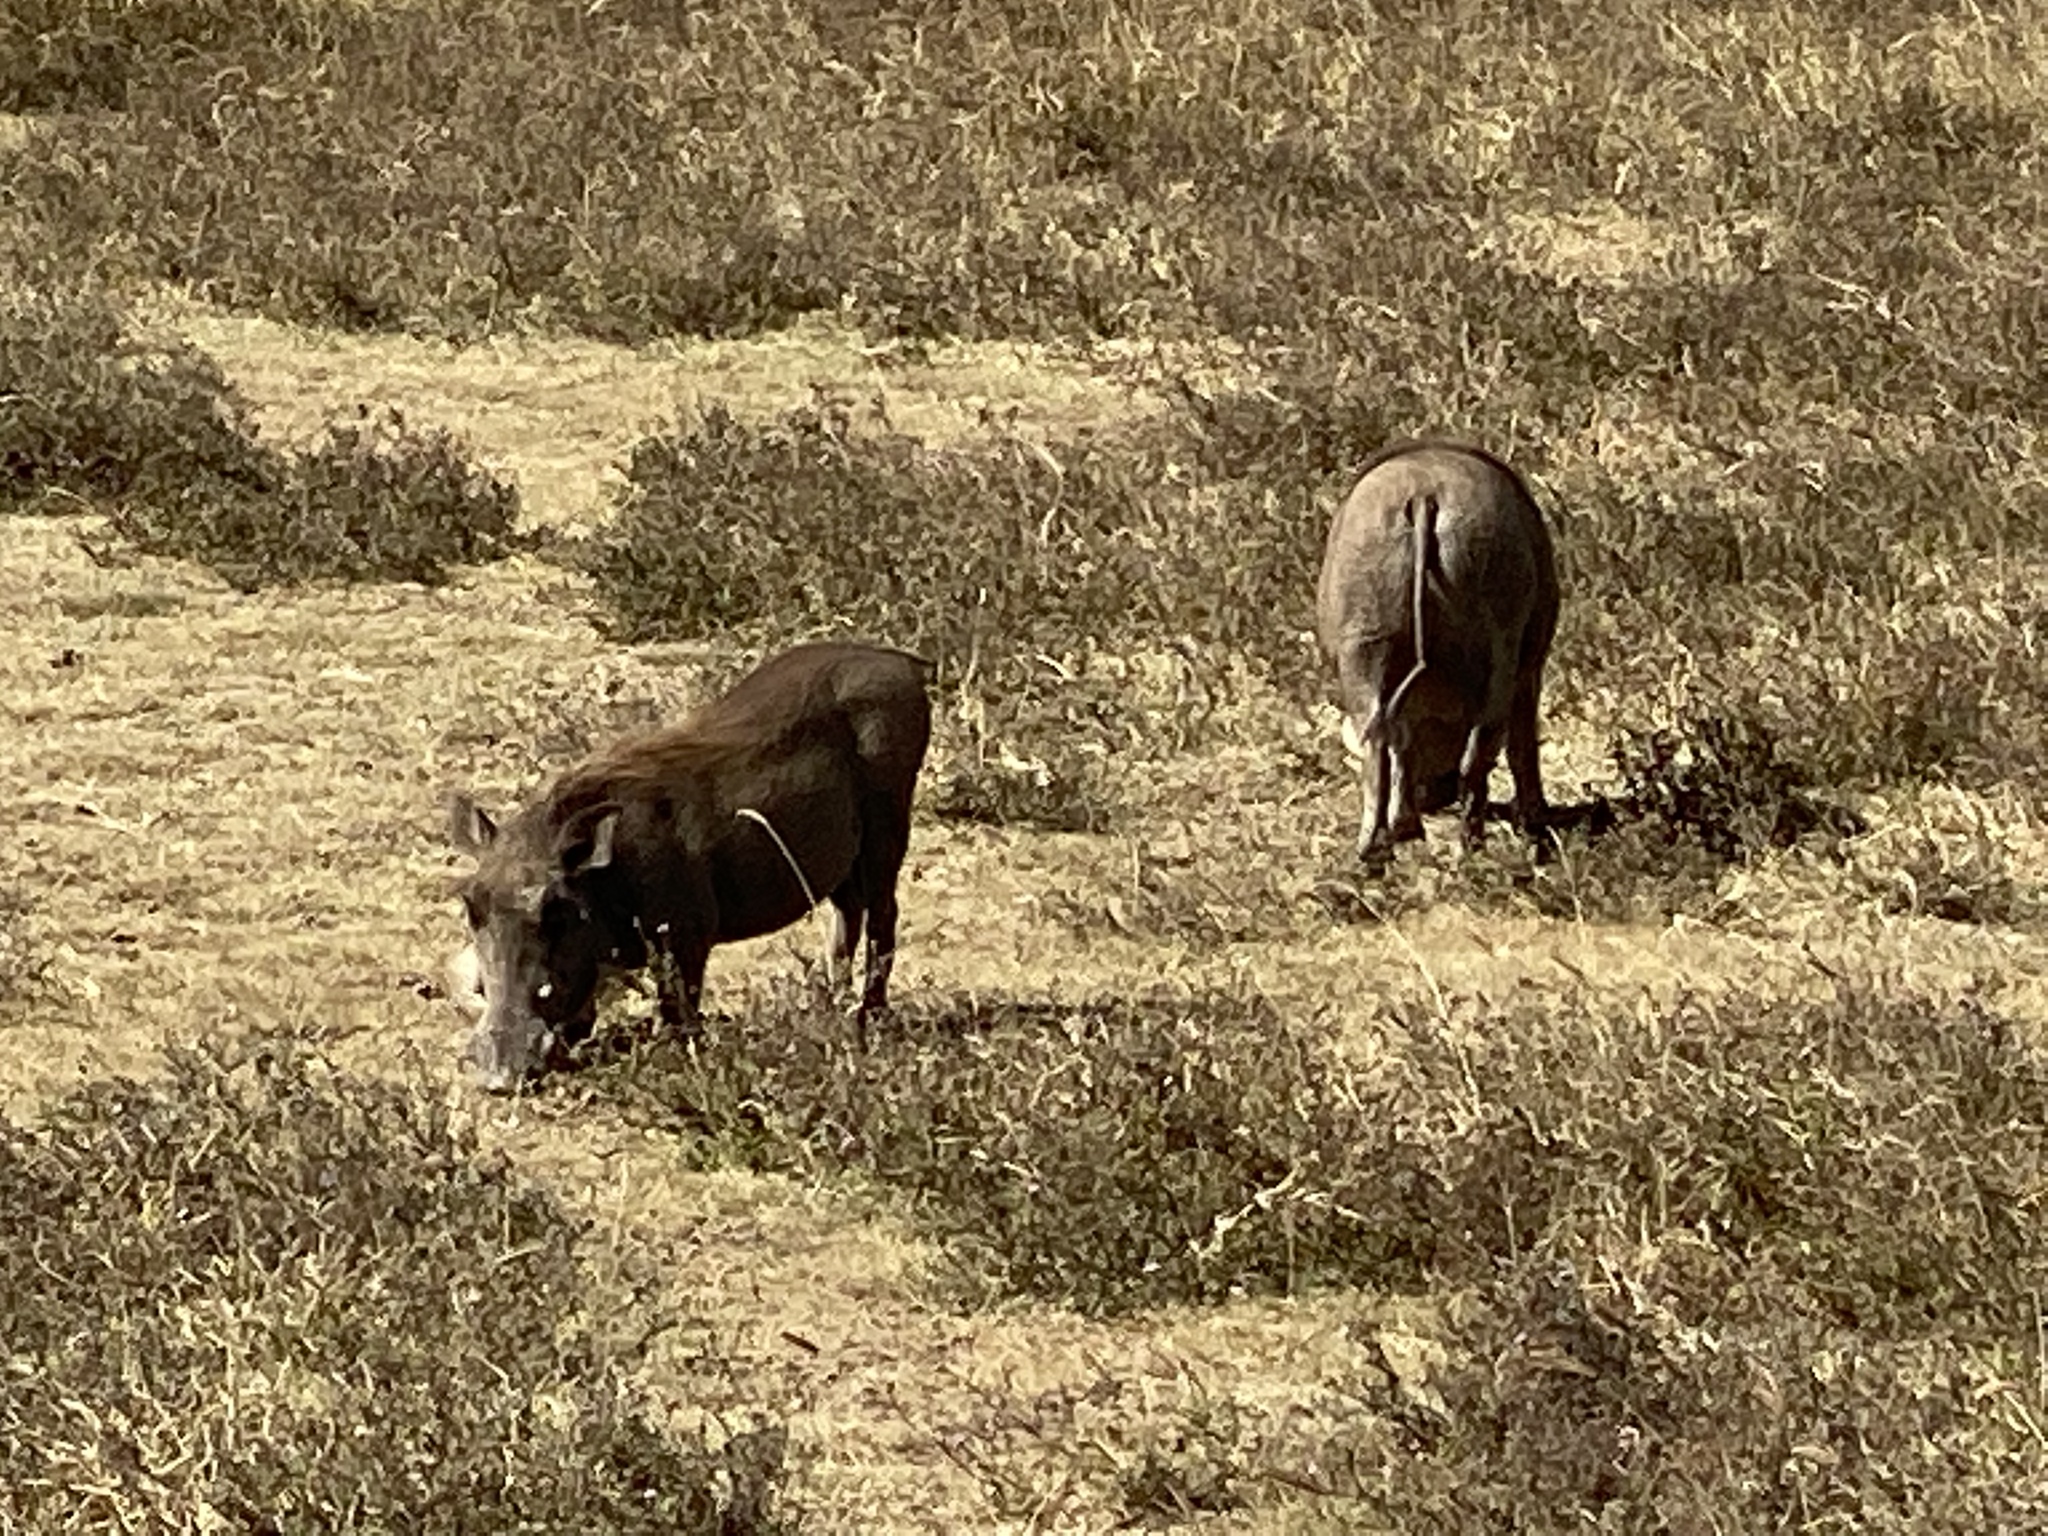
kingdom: Animalia
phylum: Chordata
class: Mammalia
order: Artiodactyla
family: Suidae
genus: Phacochoerus
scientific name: Phacochoerus africanus
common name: Common warthog
